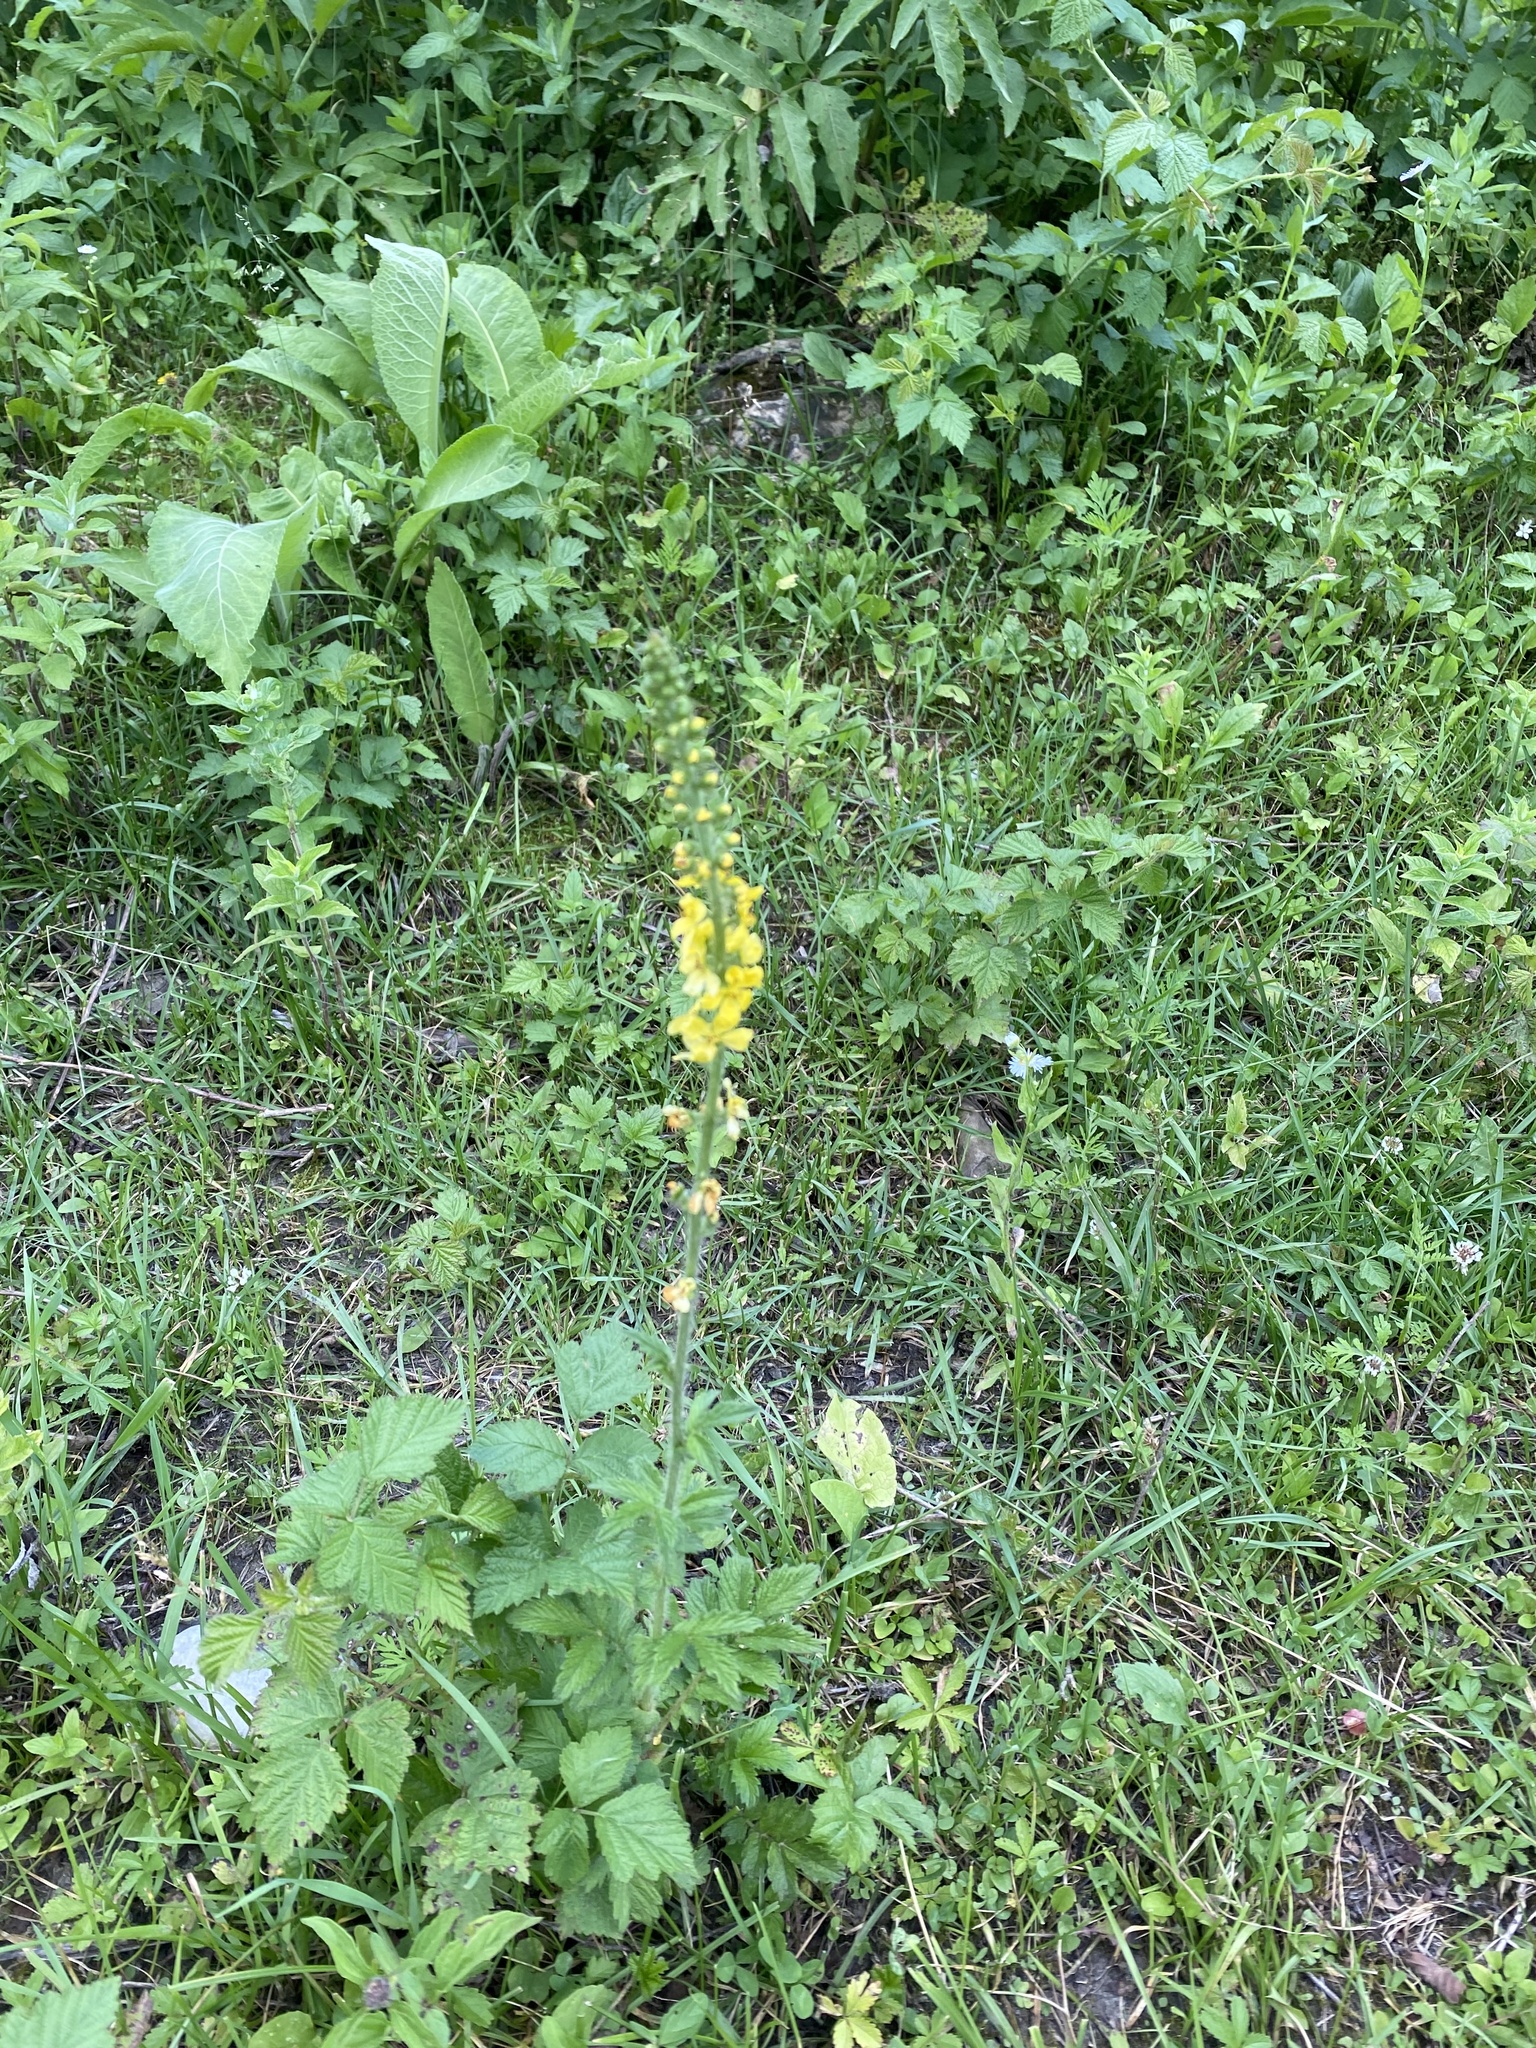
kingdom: Plantae
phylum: Tracheophyta
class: Magnoliopsida
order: Rosales
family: Rosaceae
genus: Agrimonia
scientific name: Agrimonia eupatoria
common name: Agrimony
